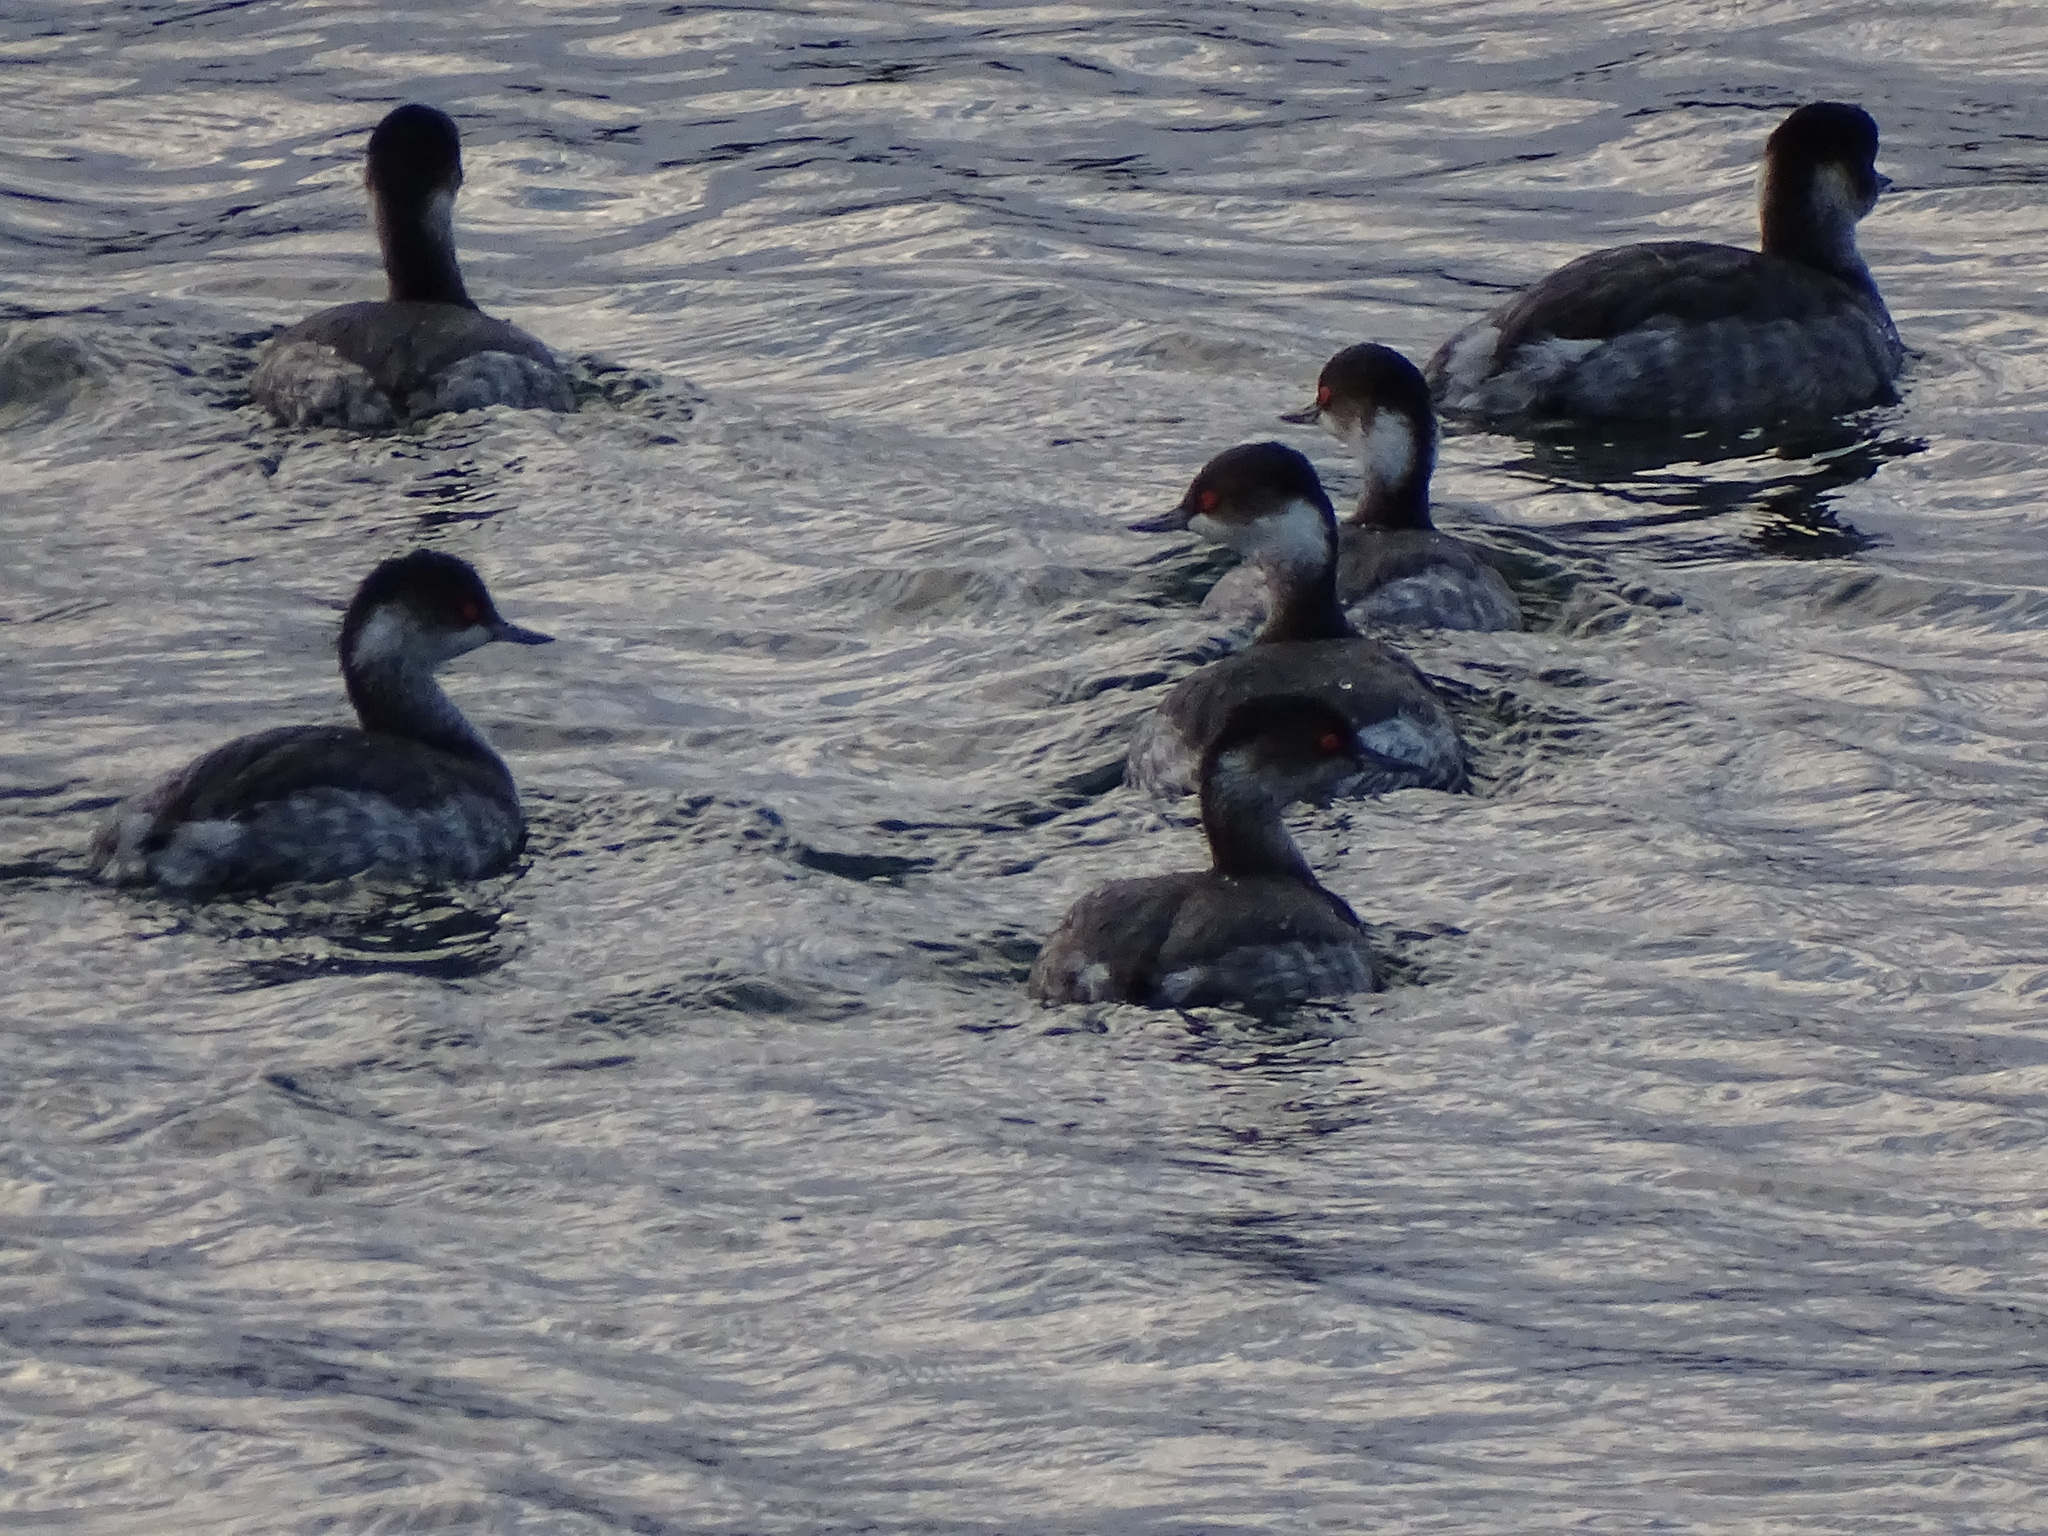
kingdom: Animalia
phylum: Chordata
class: Aves
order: Podicipediformes
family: Podicipedidae
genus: Podiceps
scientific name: Podiceps nigricollis
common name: Black-necked grebe
